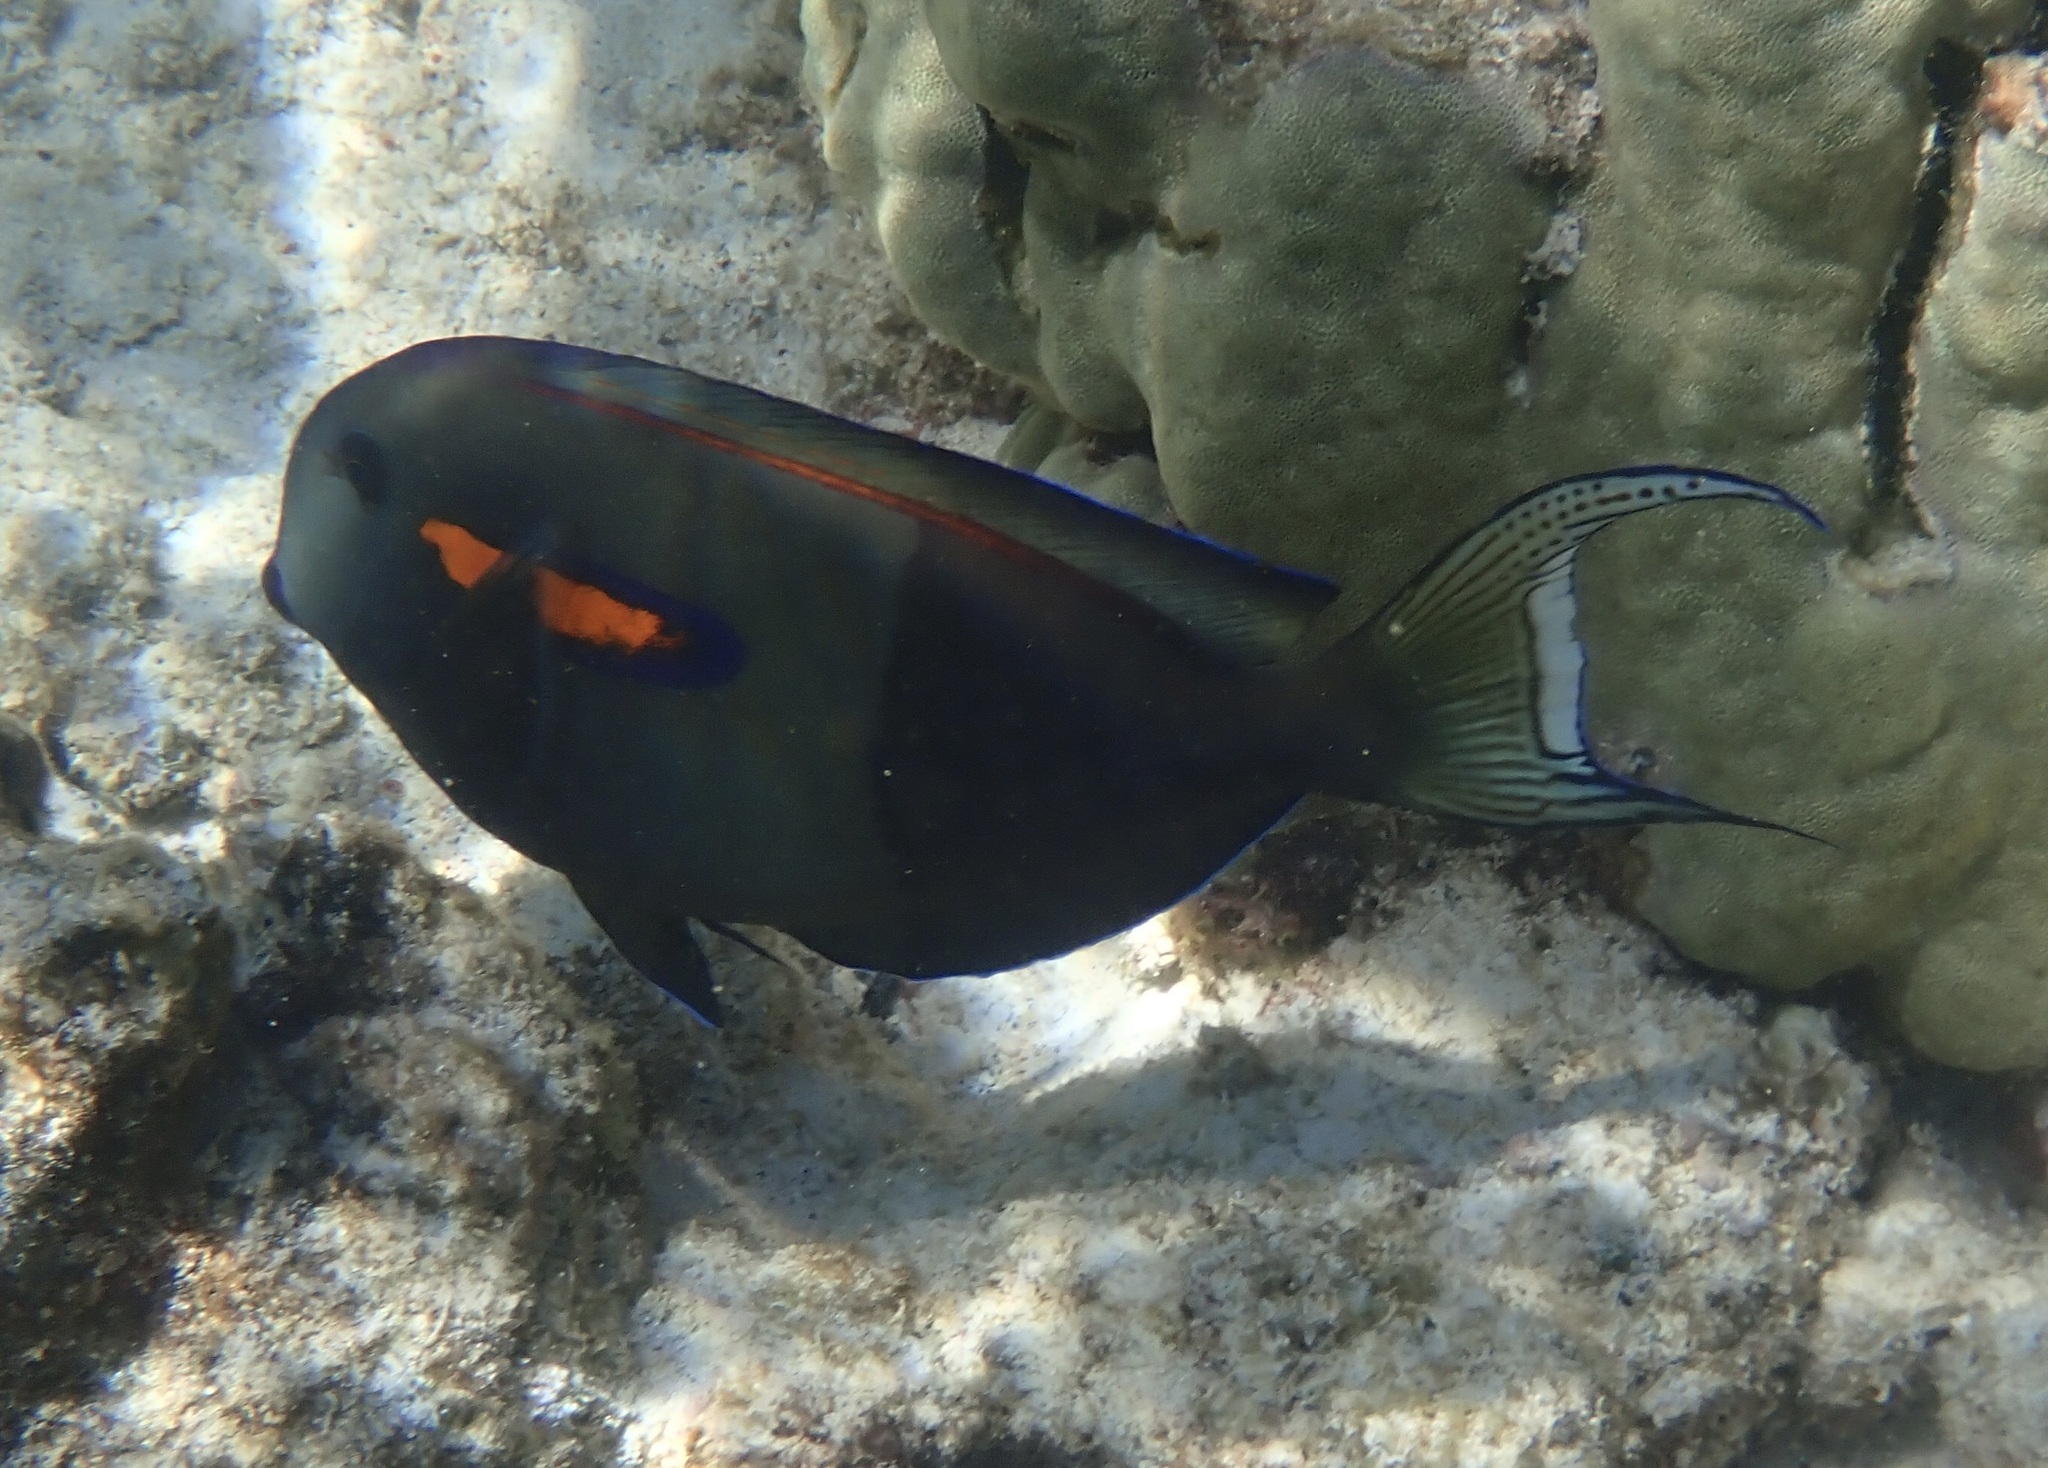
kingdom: Animalia
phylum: Chordata
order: Perciformes
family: Acanthuridae
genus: Acanthurus
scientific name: Acanthurus olivaceus
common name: Gendarme fish
